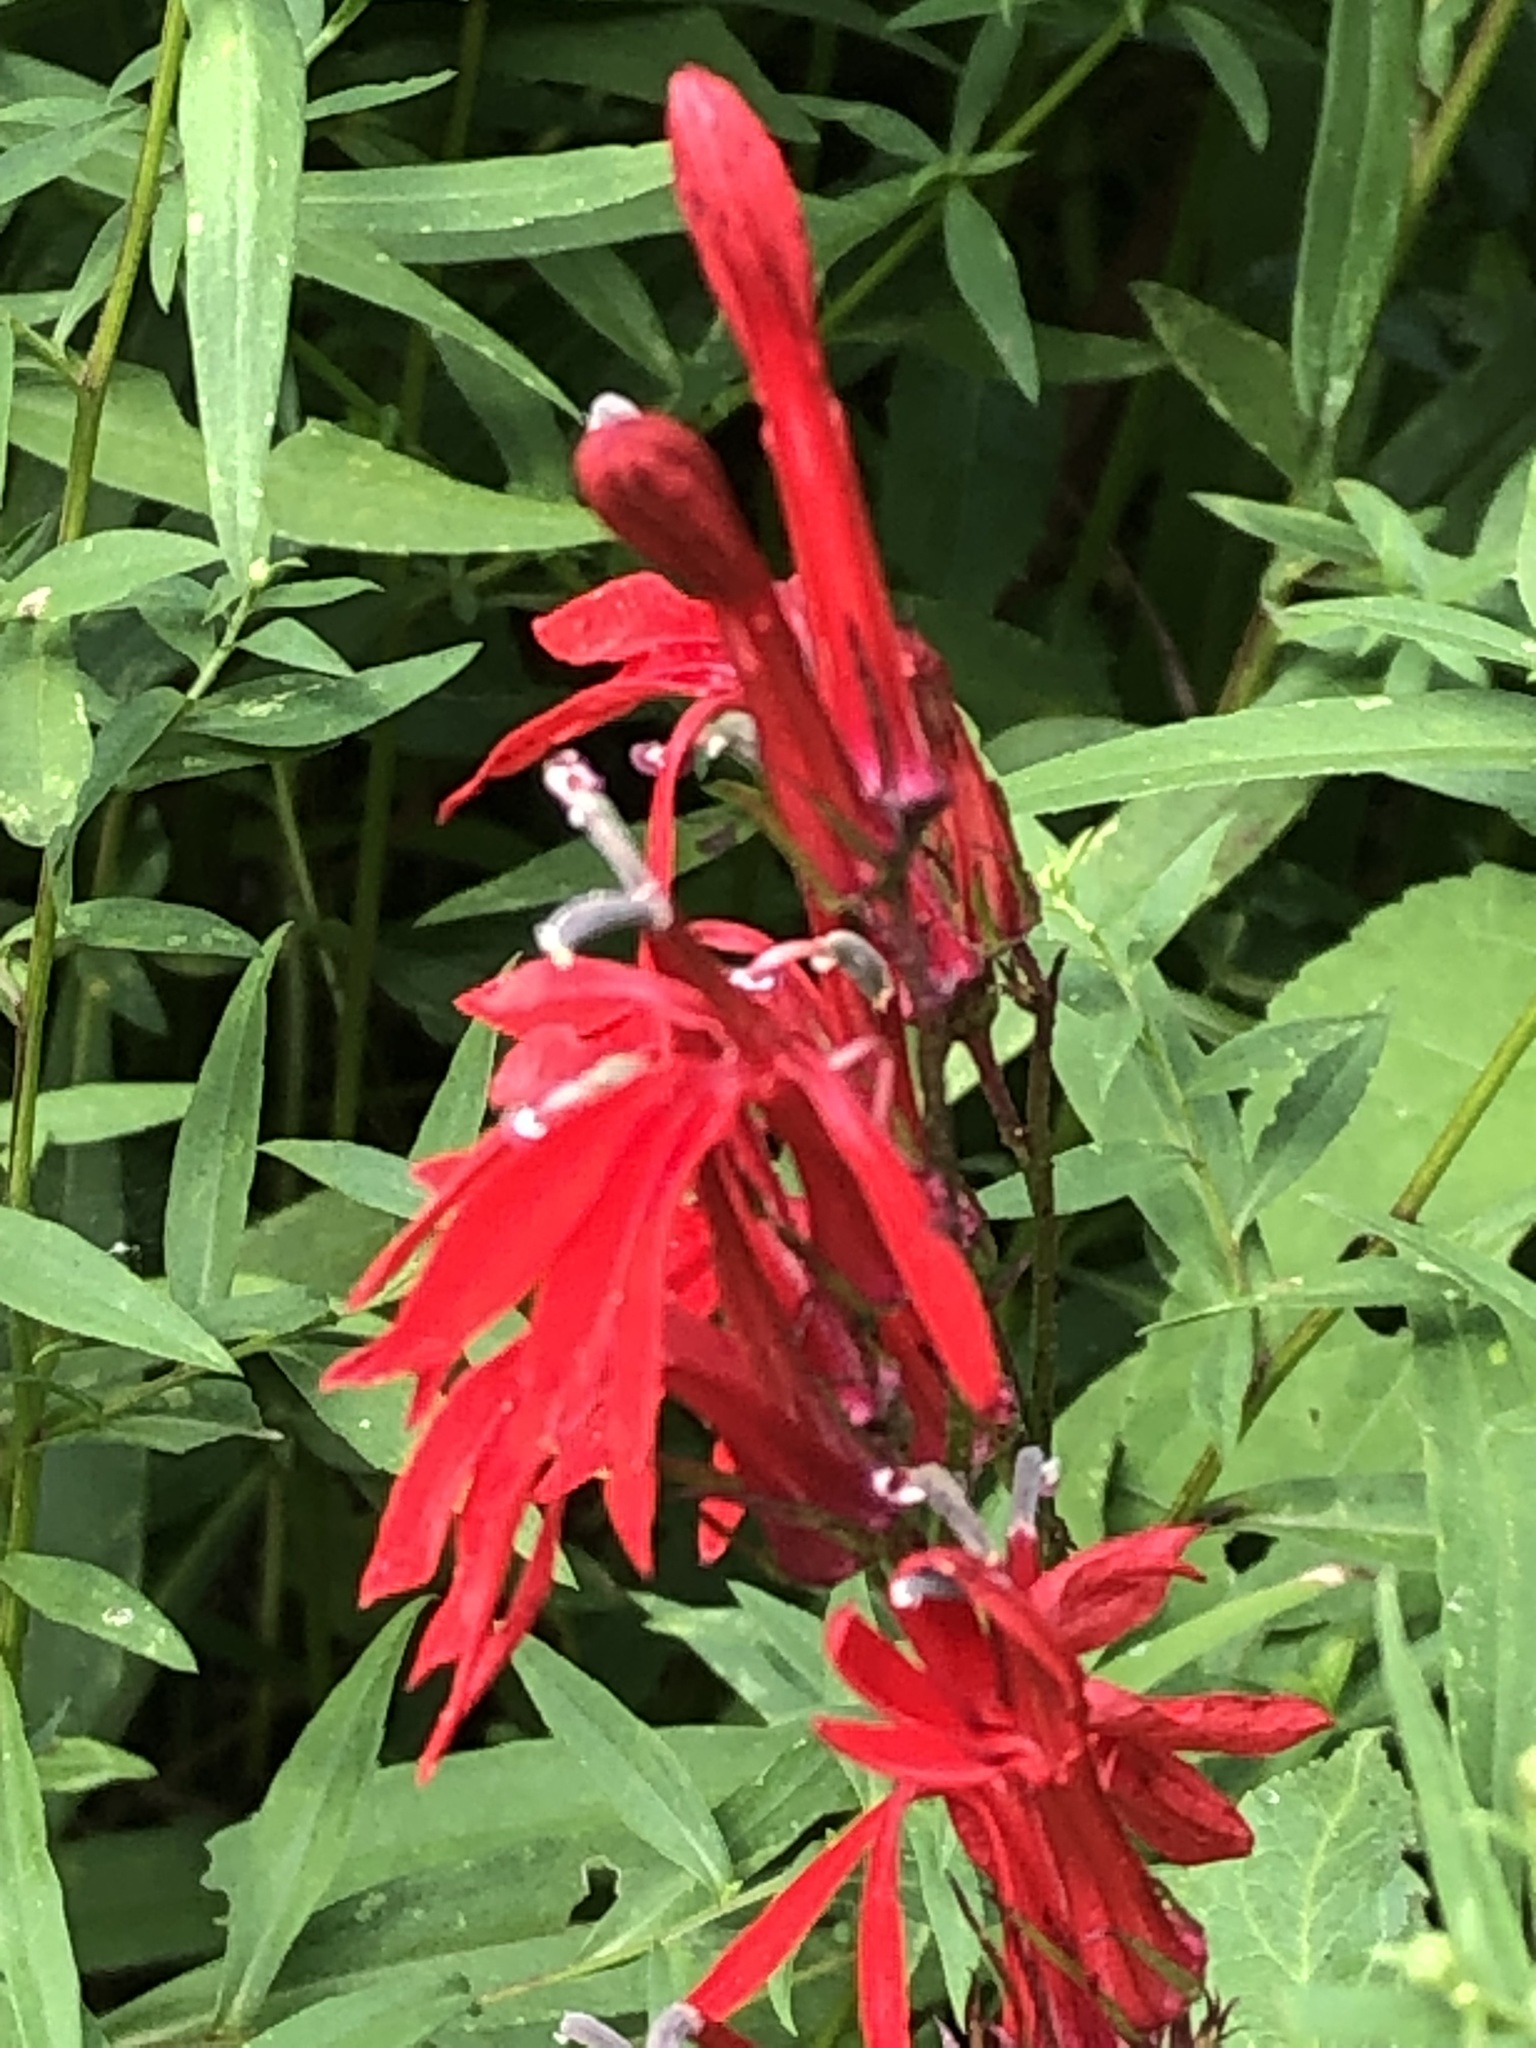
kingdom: Plantae
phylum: Tracheophyta
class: Magnoliopsida
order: Asterales
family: Campanulaceae
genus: Lobelia
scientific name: Lobelia cardinalis
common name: Cardinal flower
